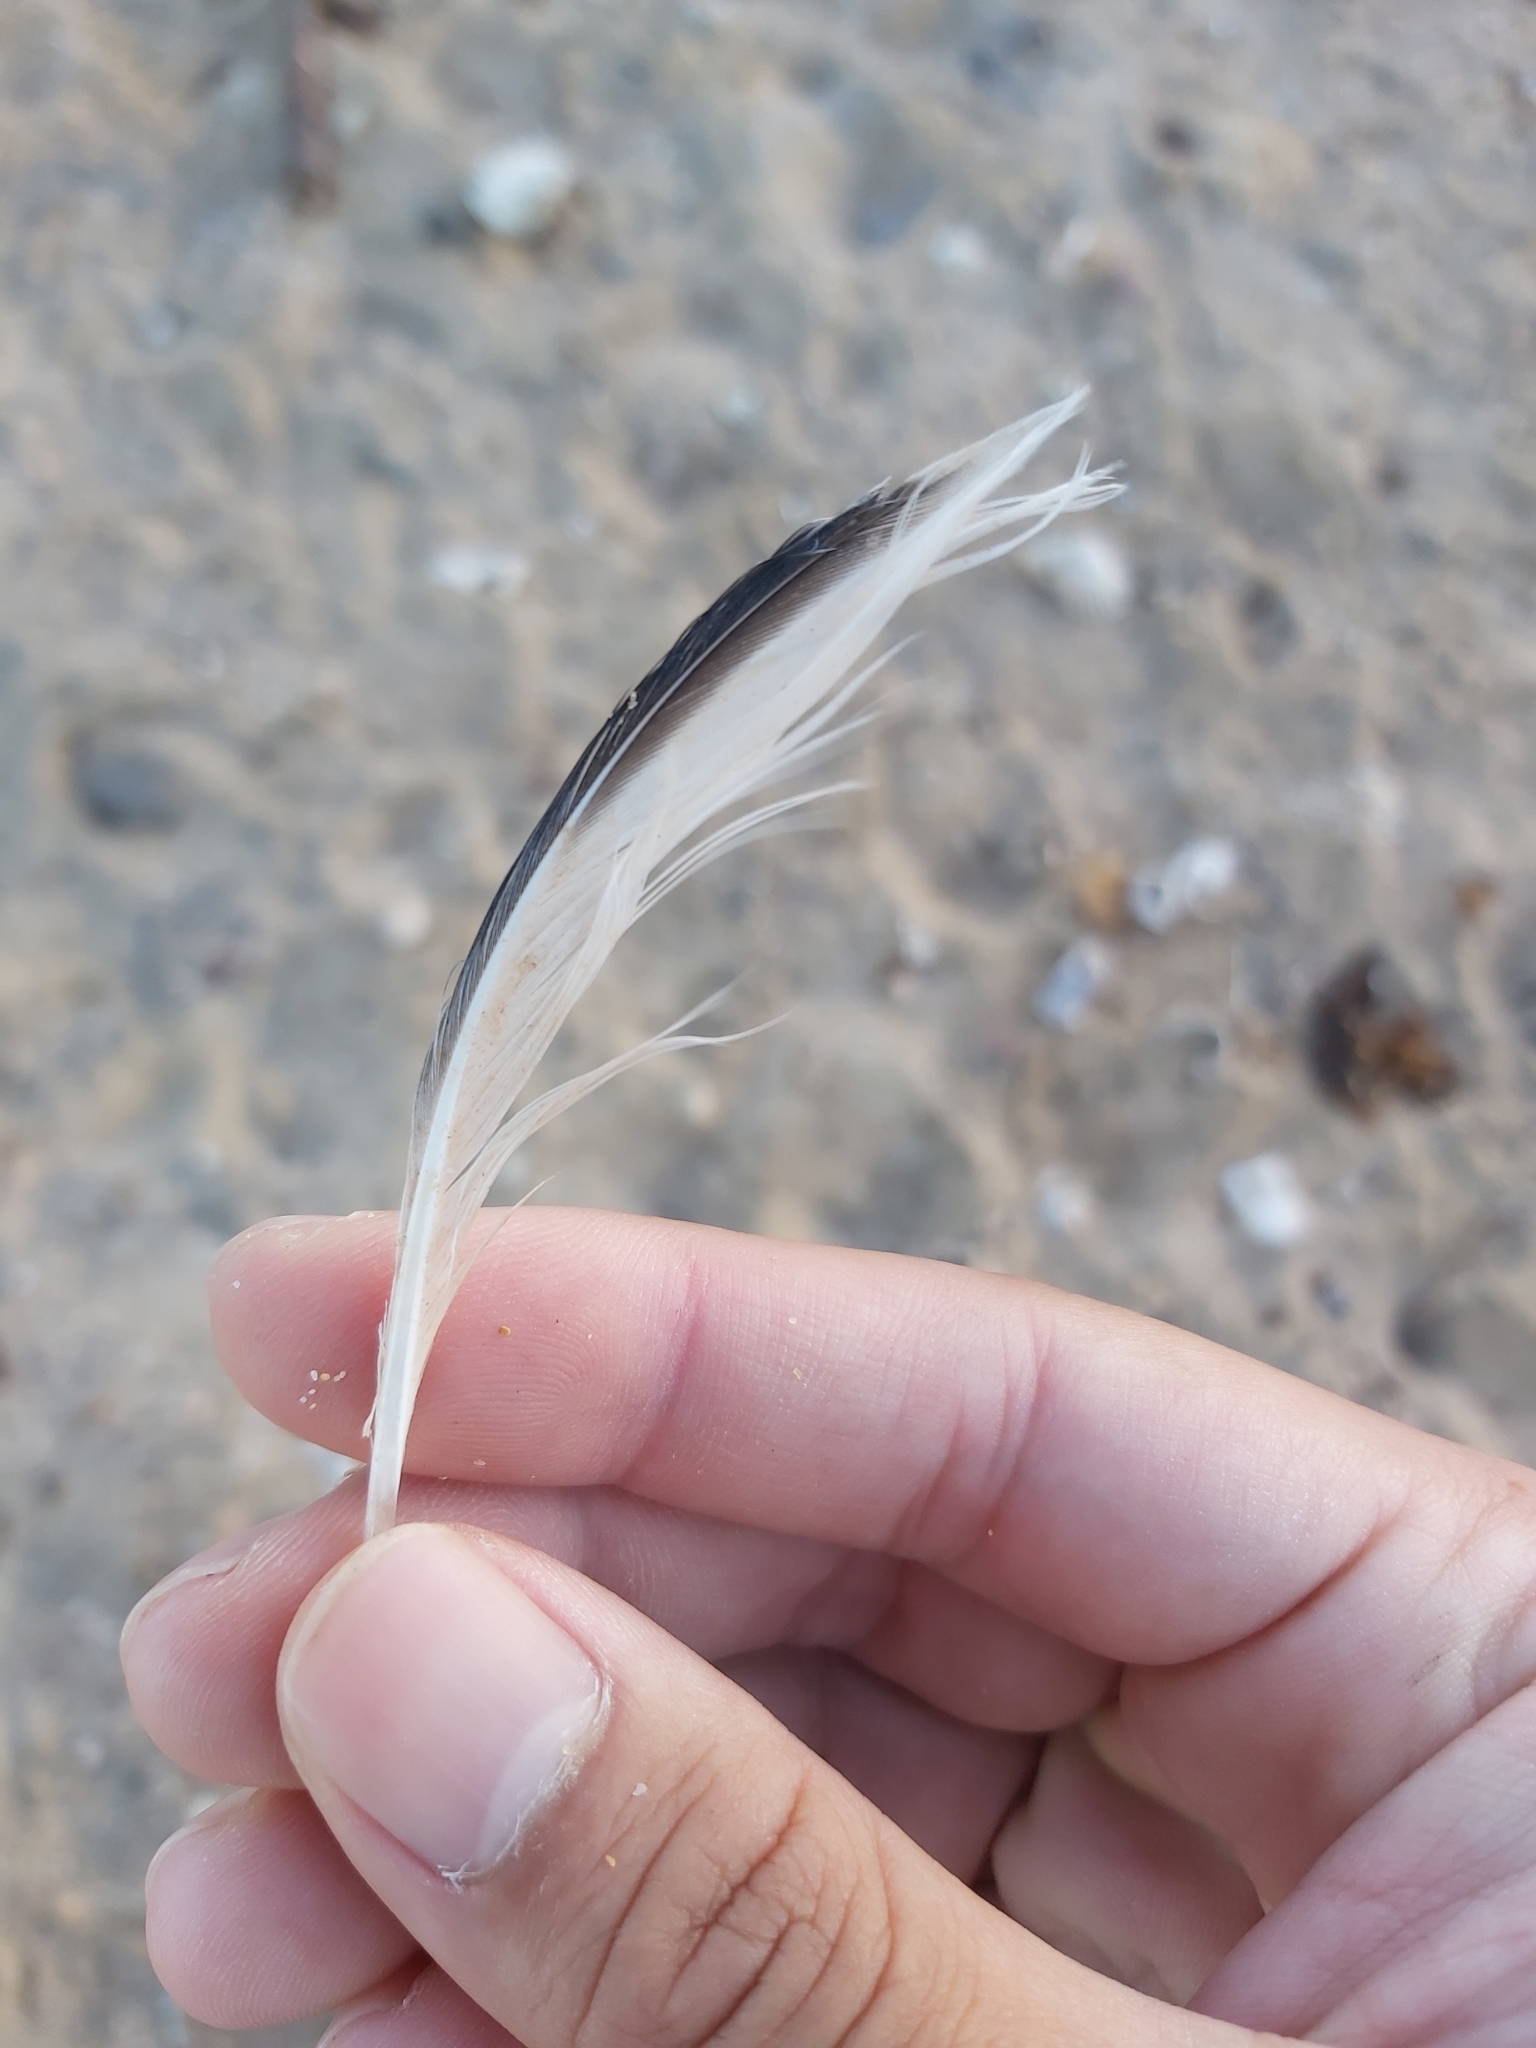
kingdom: Animalia
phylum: Chordata
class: Aves
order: Charadriiformes
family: Laridae
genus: Thalasseus
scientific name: Thalasseus bergii
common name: Greater crested tern
